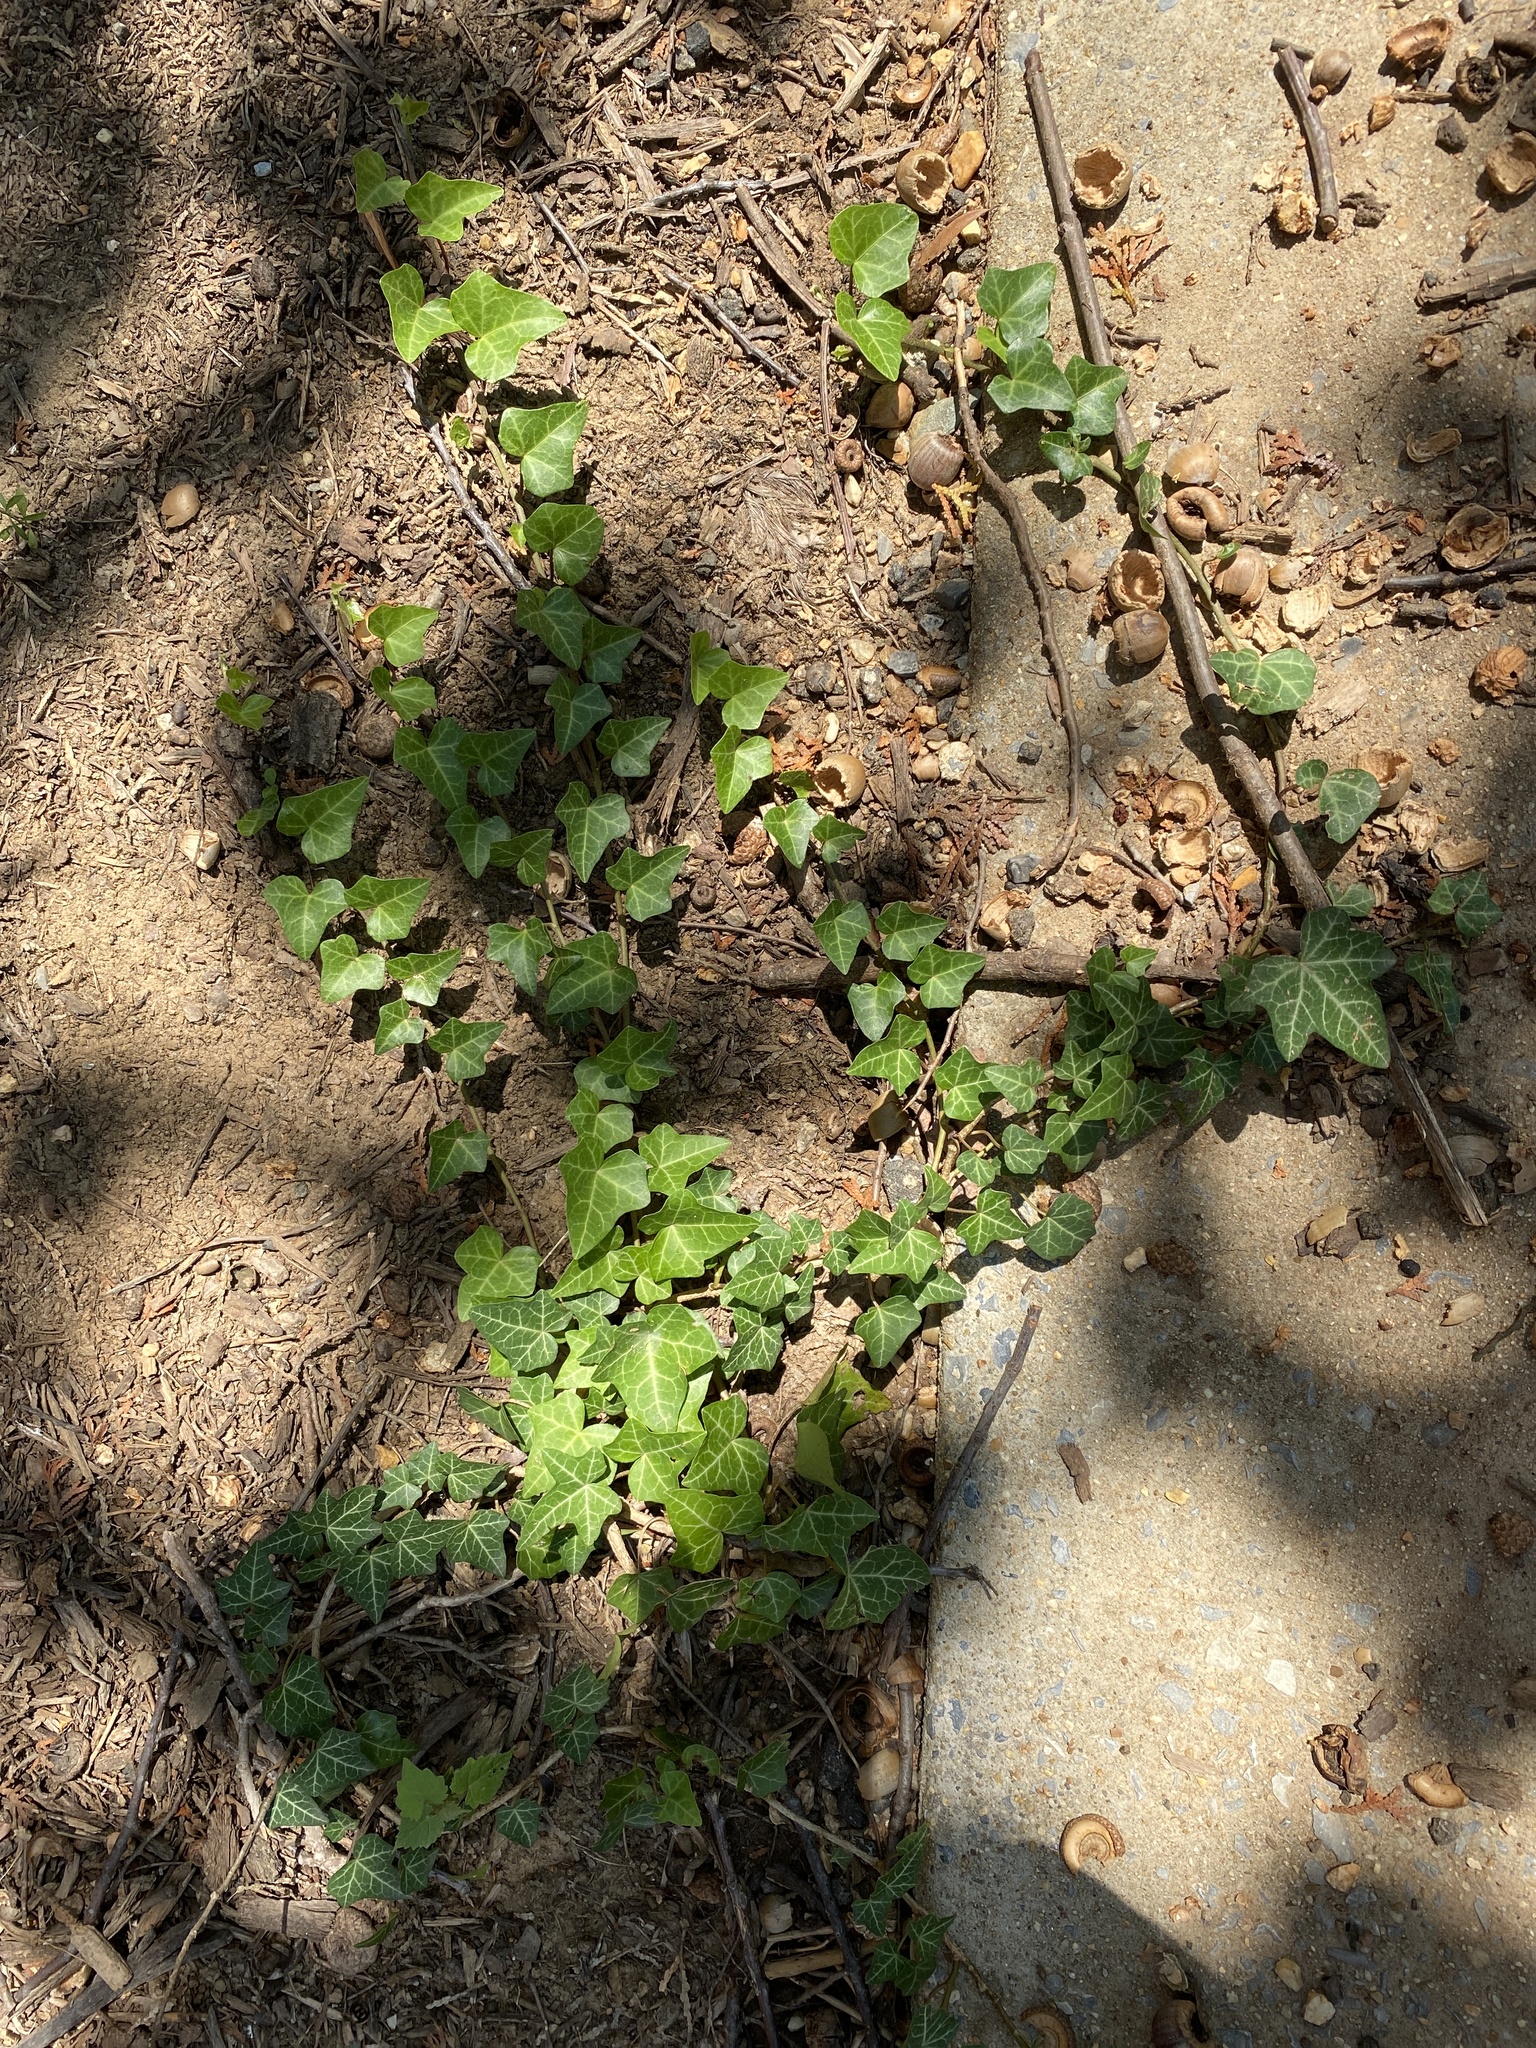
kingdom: Plantae
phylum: Tracheophyta
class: Magnoliopsida
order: Apiales
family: Araliaceae
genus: Hedera
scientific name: Hedera helix
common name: Ivy
